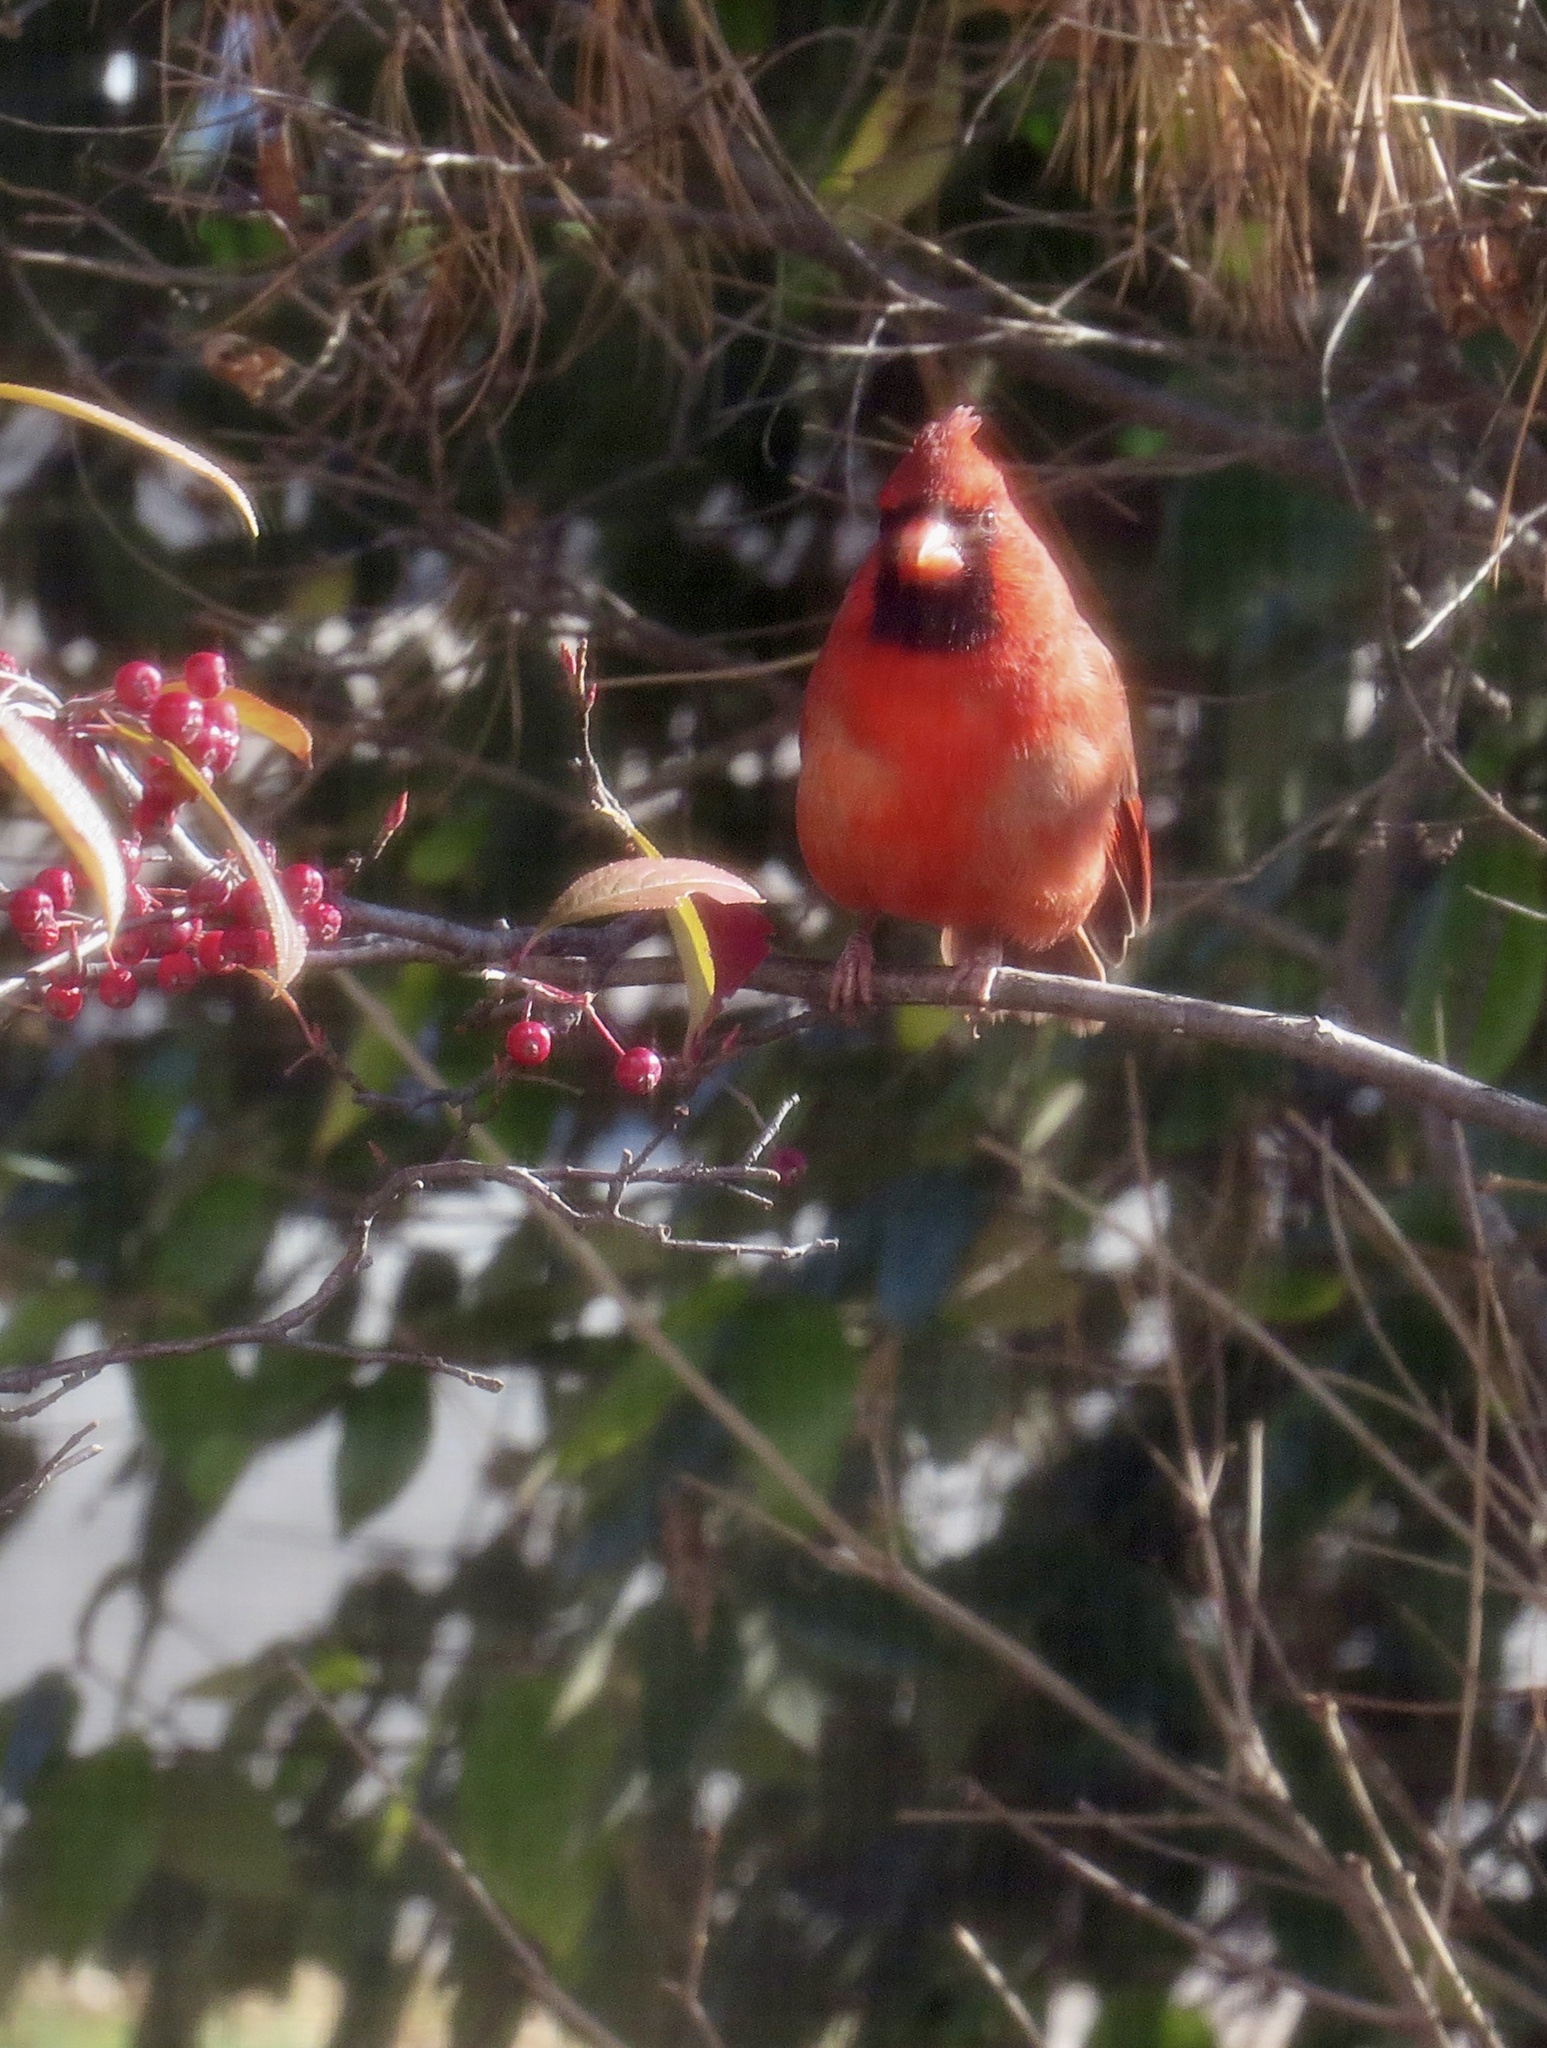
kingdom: Animalia
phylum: Chordata
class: Aves
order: Passeriformes
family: Cardinalidae
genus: Cardinalis
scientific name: Cardinalis cardinalis
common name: Northern cardinal
